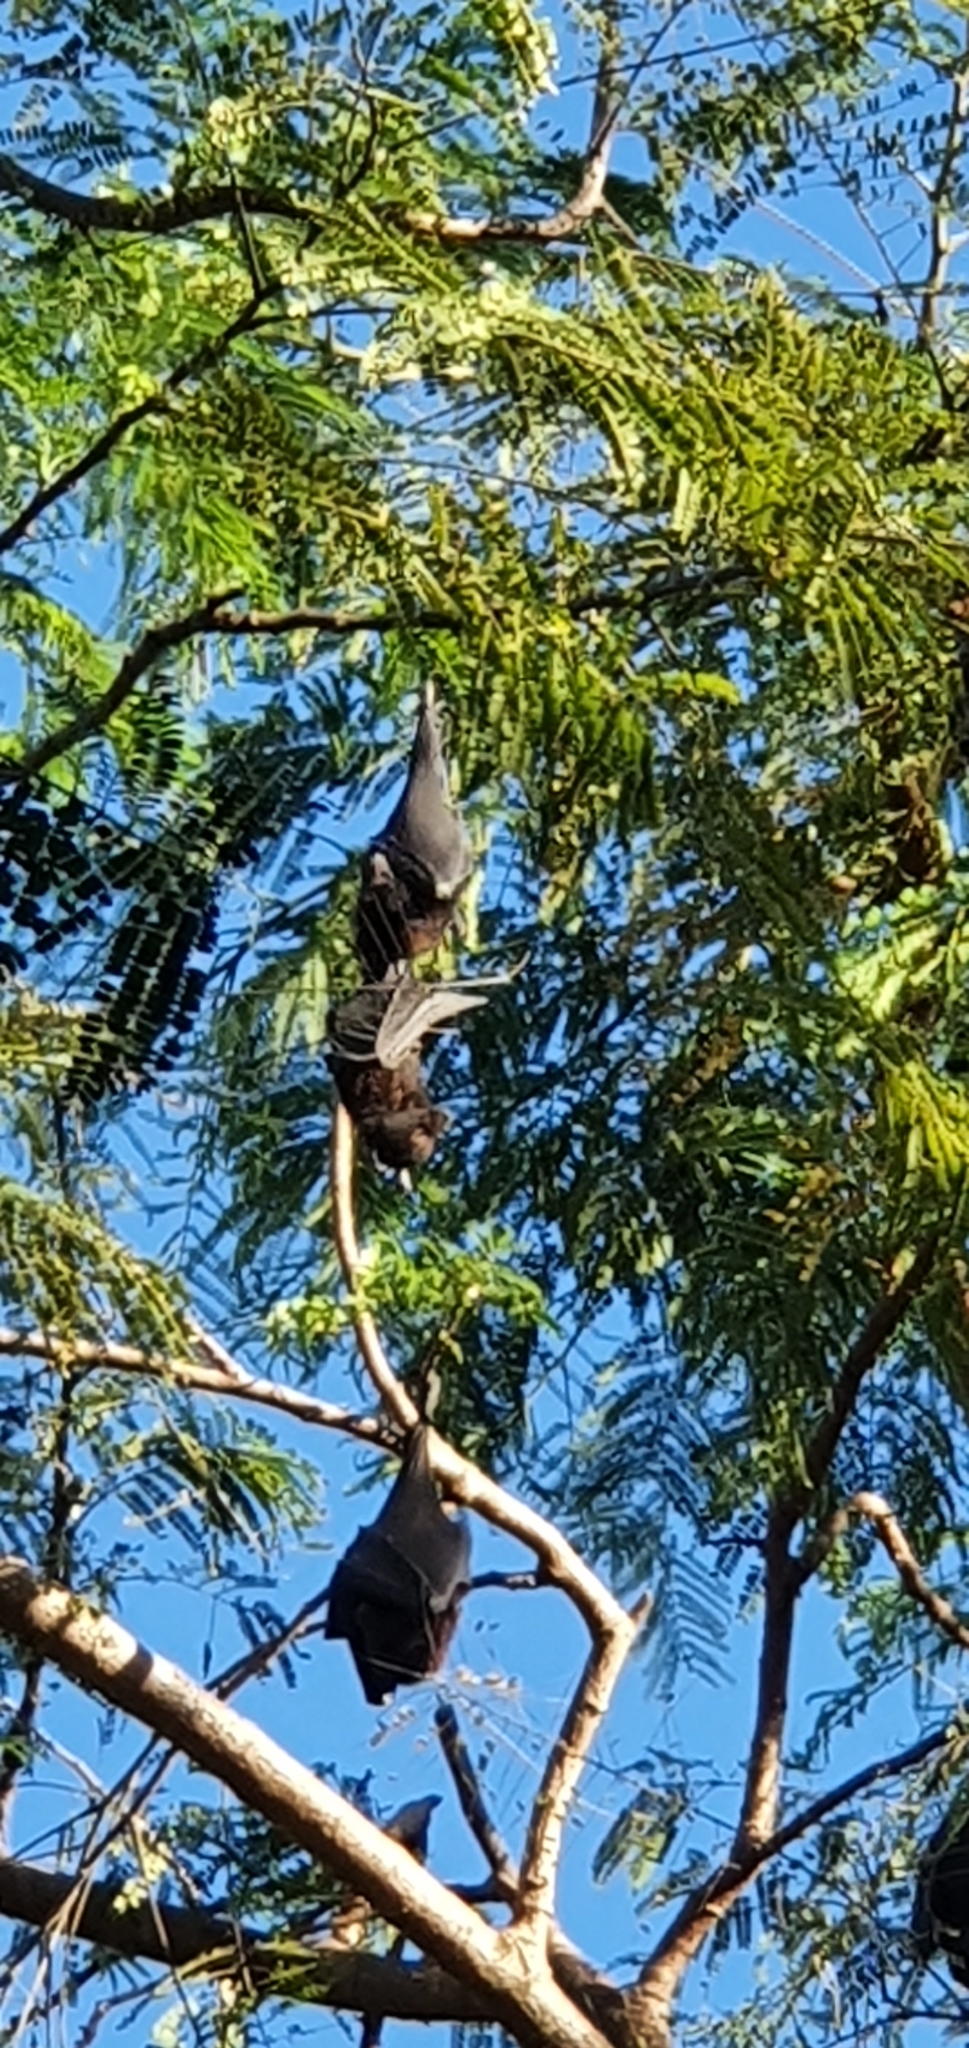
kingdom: Animalia
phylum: Chordata
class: Mammalia
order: Chiroptera
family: Pteropodidae
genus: Pteropus
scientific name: Pteropus alecto
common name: Black flying fox
